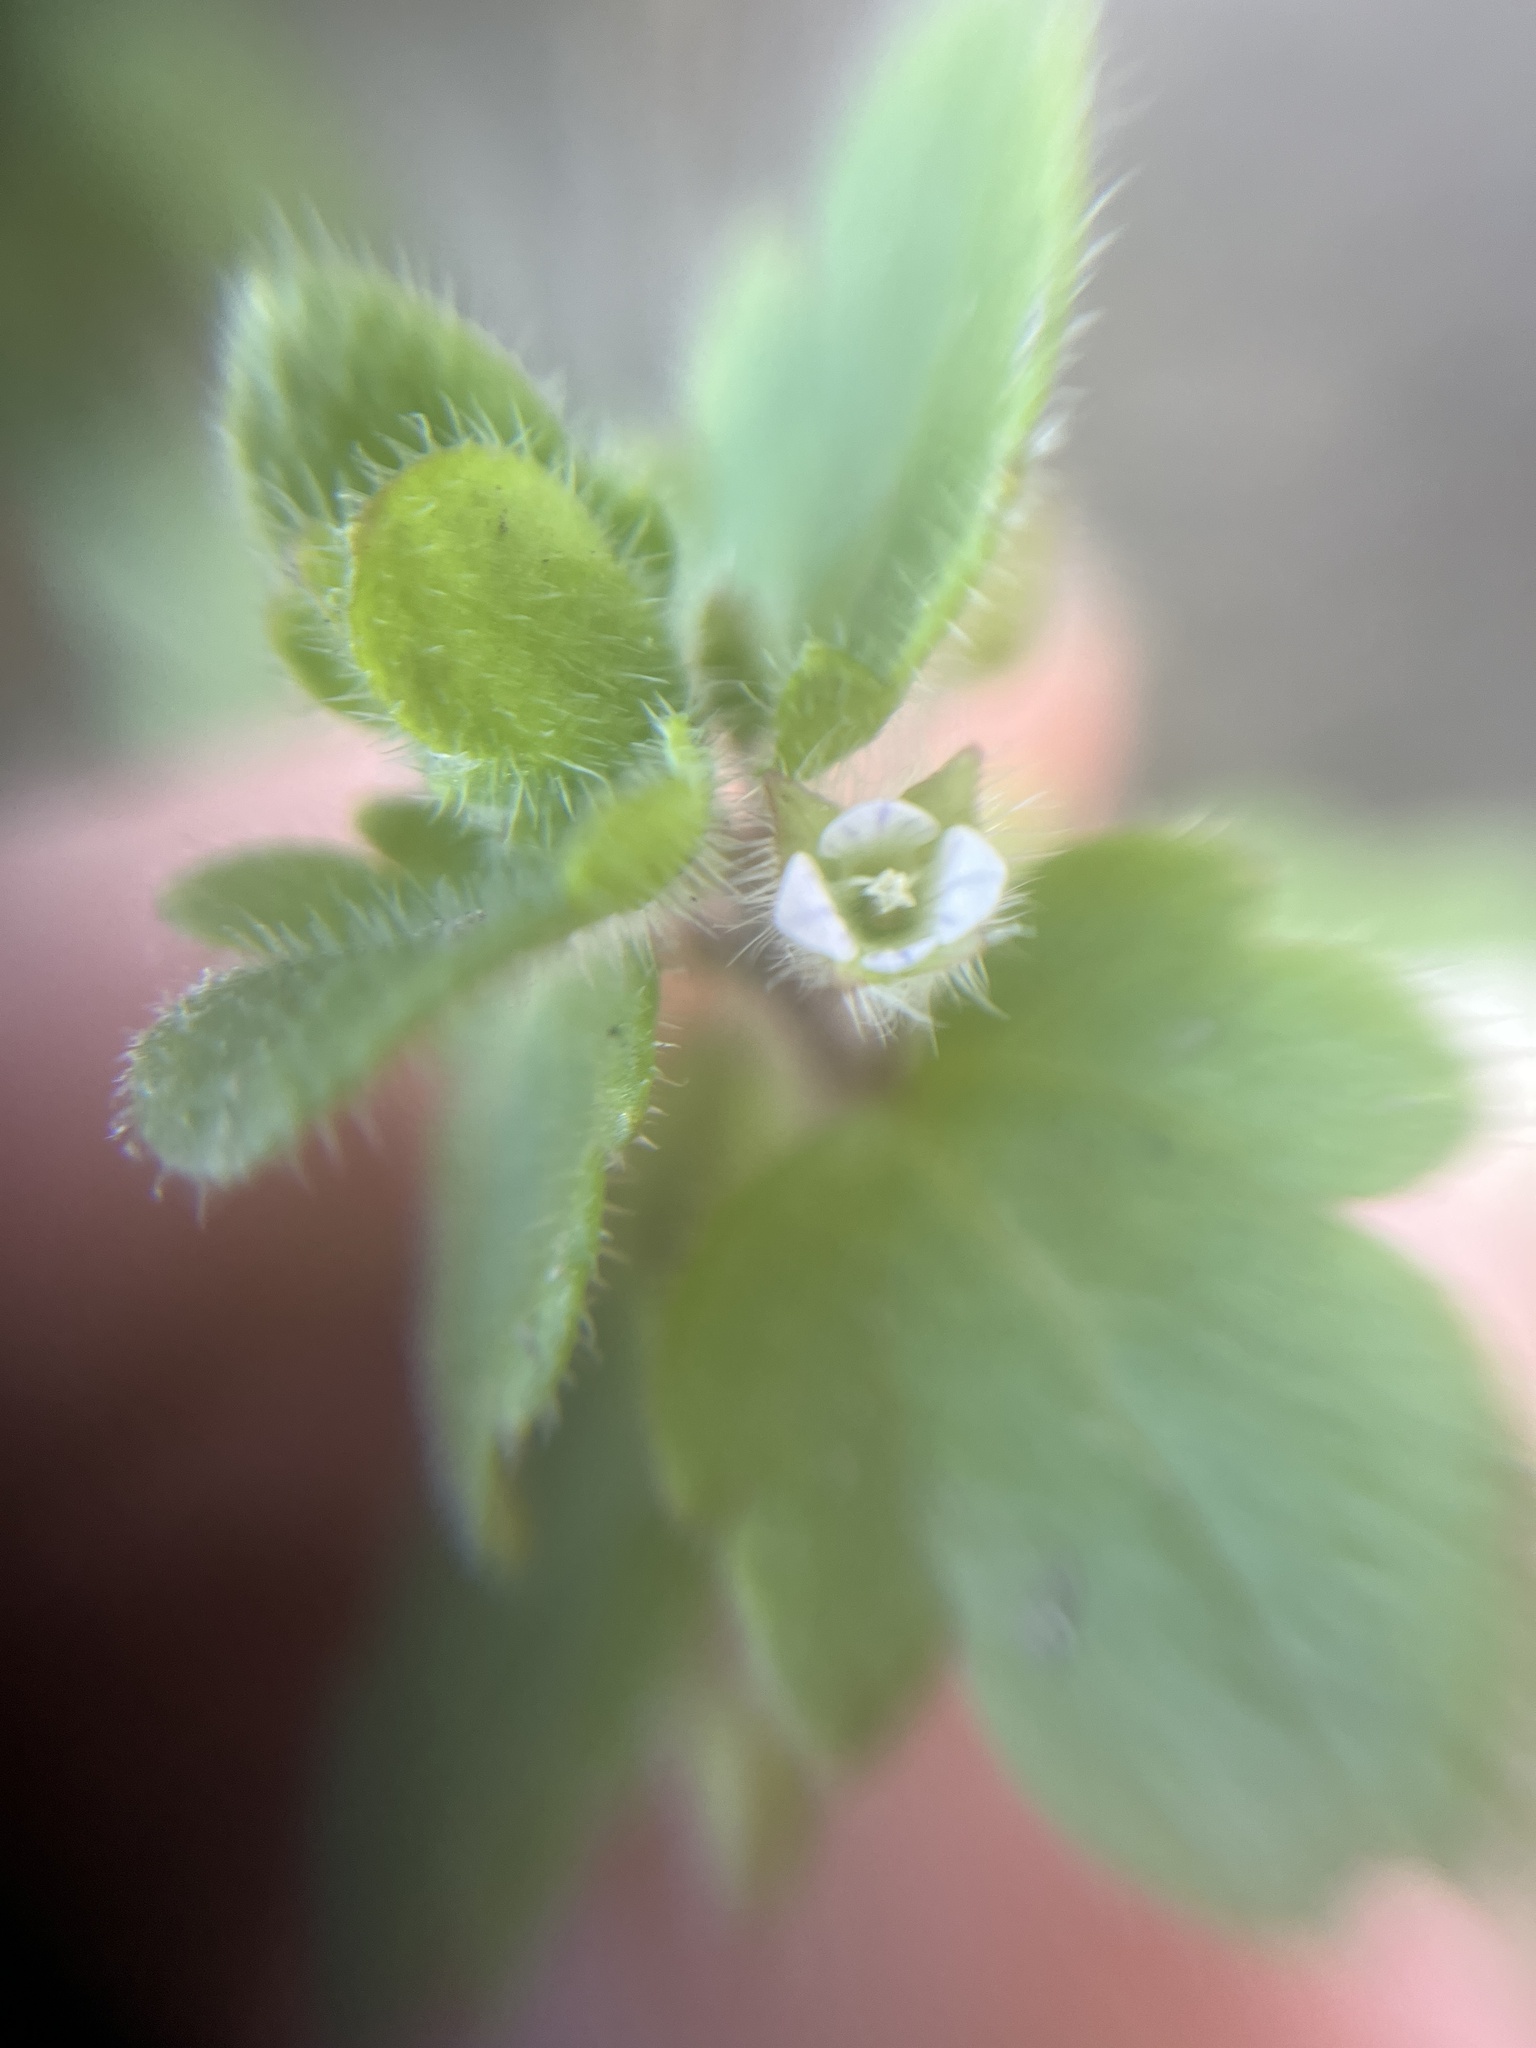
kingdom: Plantae
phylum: Tracheophyta
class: Magnoliopsida
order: Lamiales
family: Plantaginaceae
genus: Veronica
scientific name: Veronica sublobata
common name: False ivy-leaved speedwell
